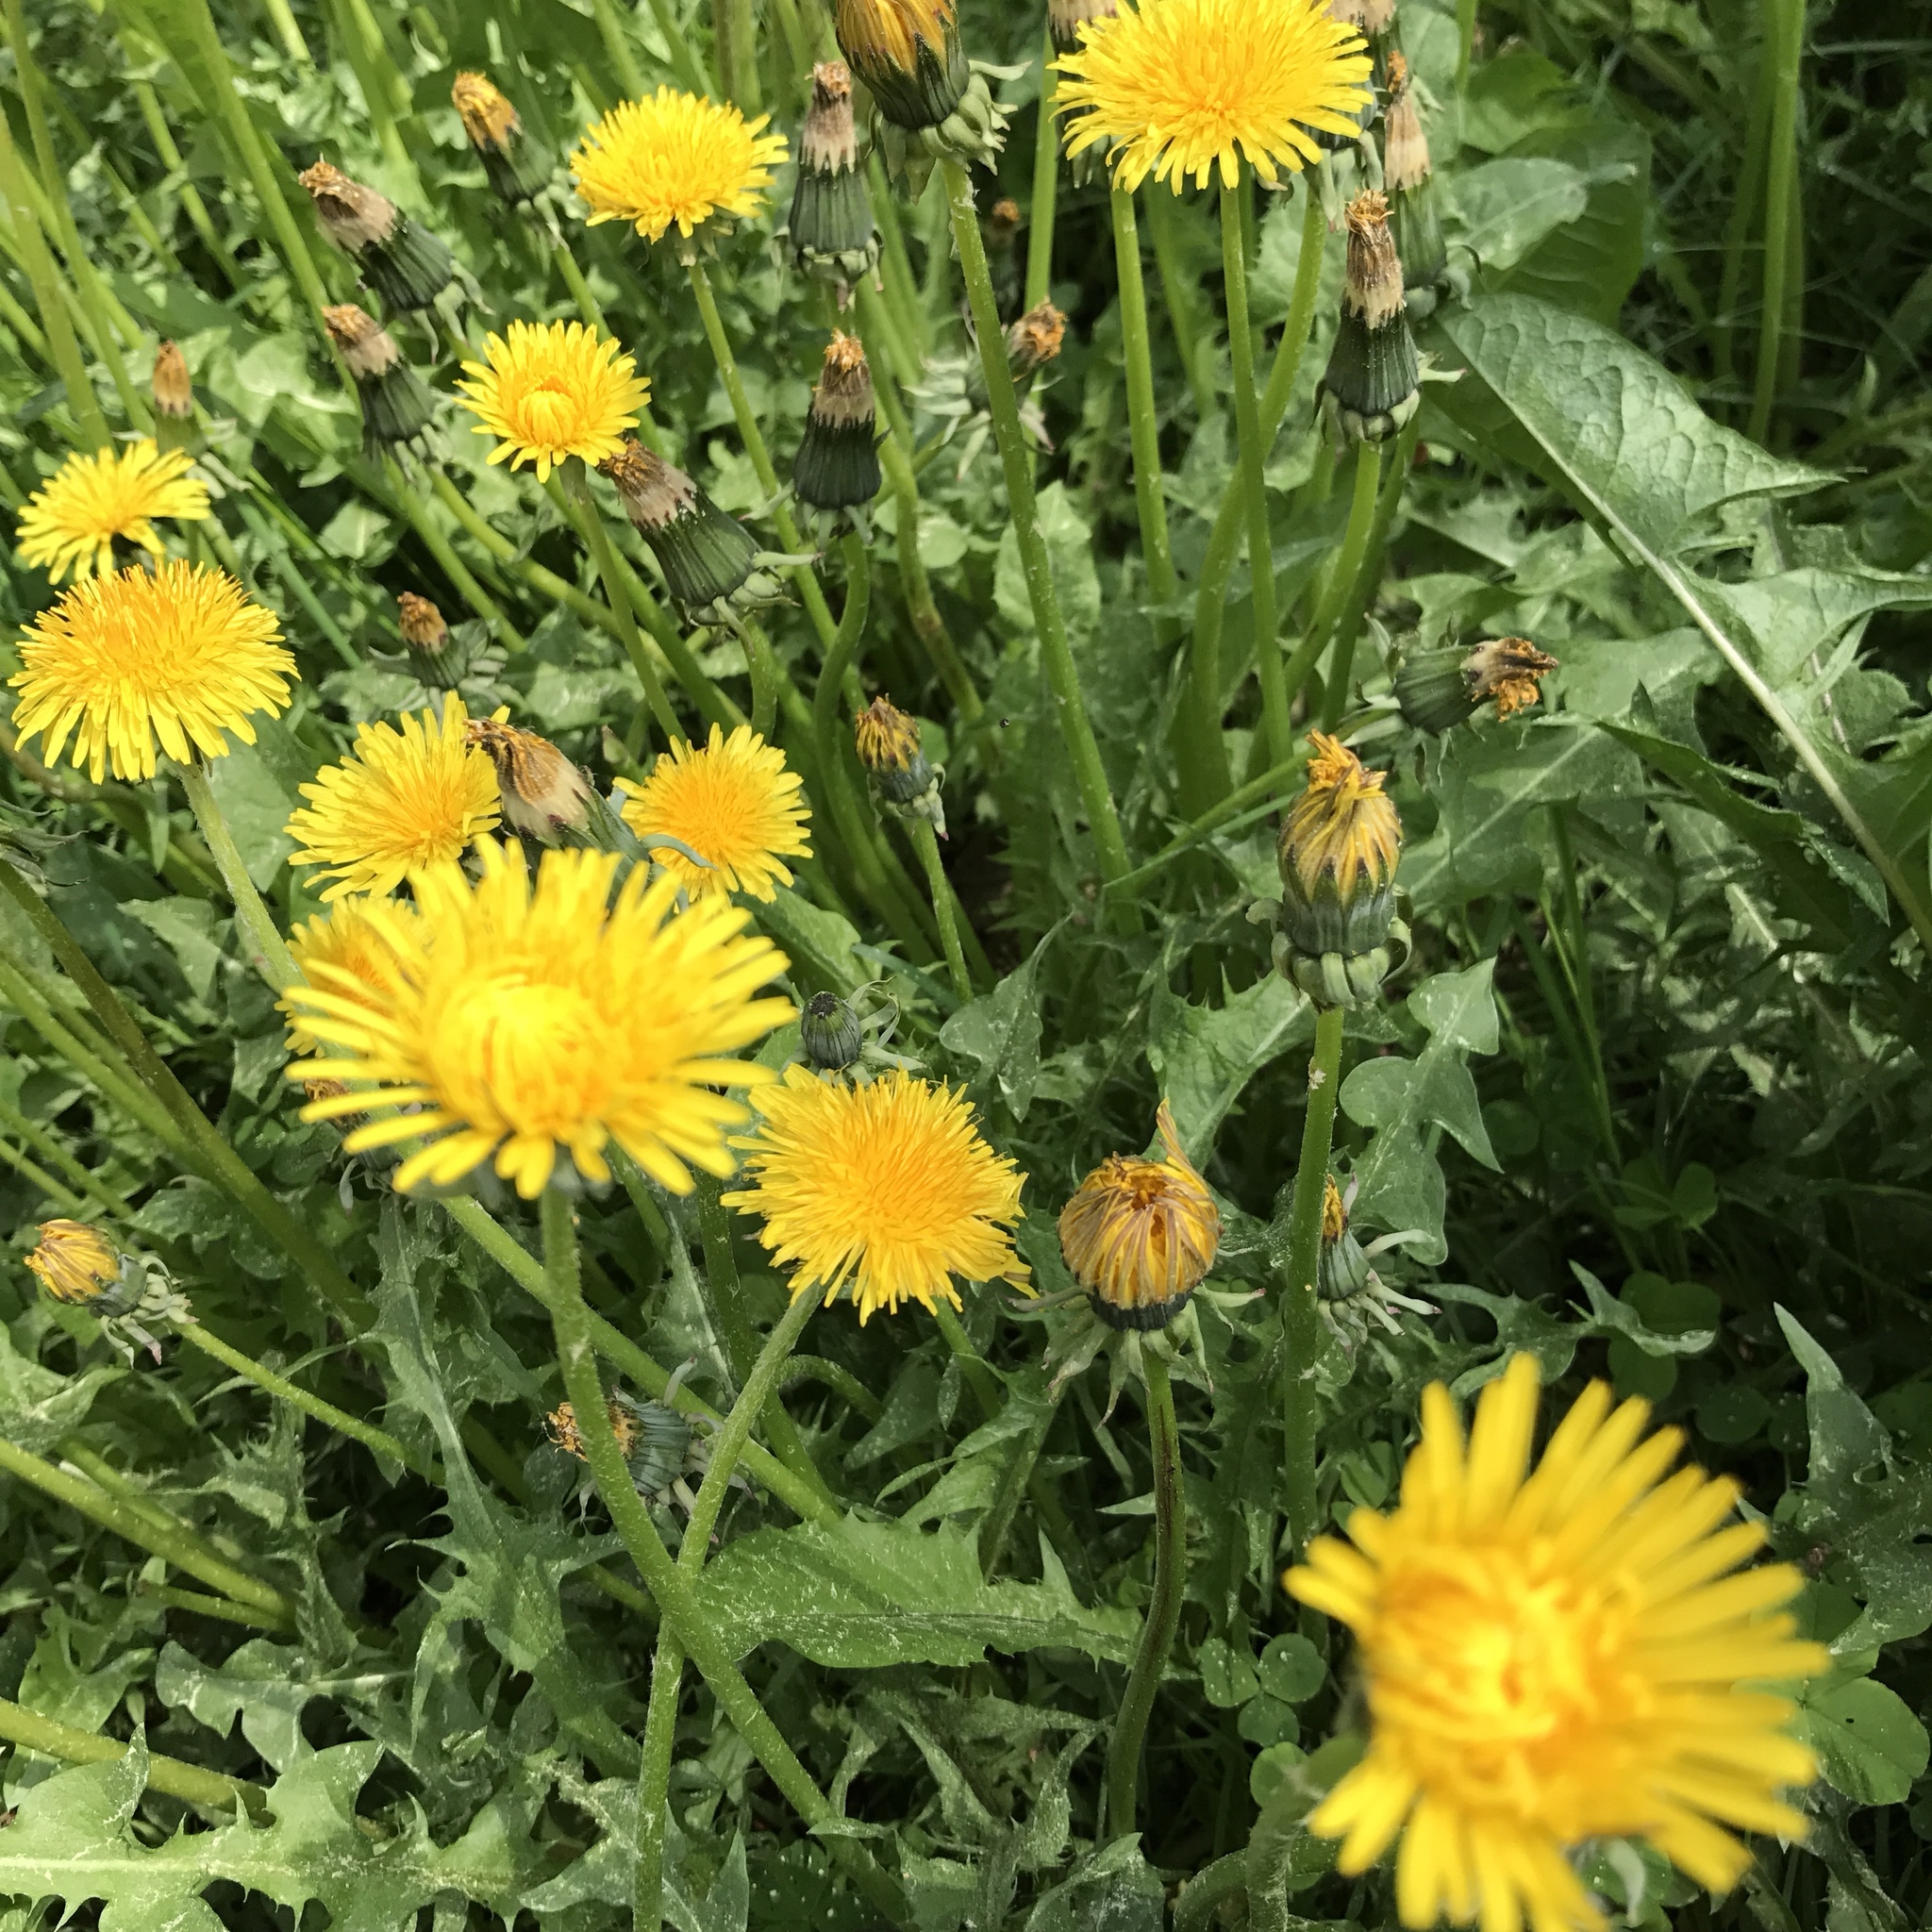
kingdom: Plantae
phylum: Tracheophyta
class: Magnoliopsida
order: Asterales
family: Asteraceae
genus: Taraxacum
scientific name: Taraxacum officinale
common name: Common dandelion
